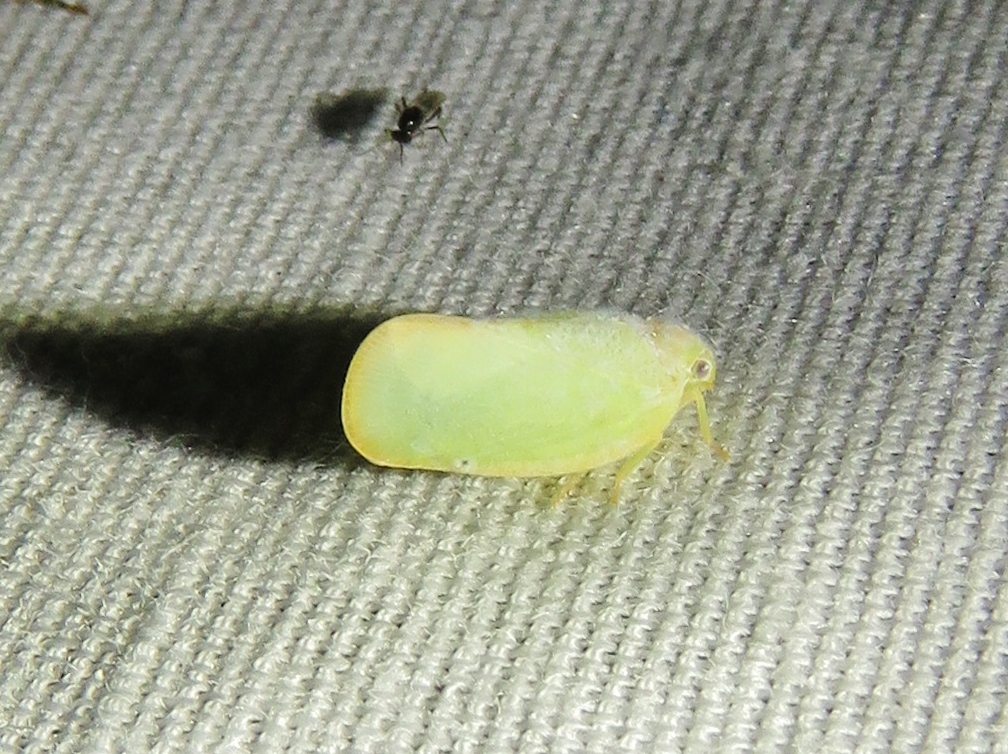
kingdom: Animalia
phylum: Arthropoda
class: Insecta
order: Hemiptera
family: Flatidae
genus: Ormenoides
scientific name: Ormenoides venusta
